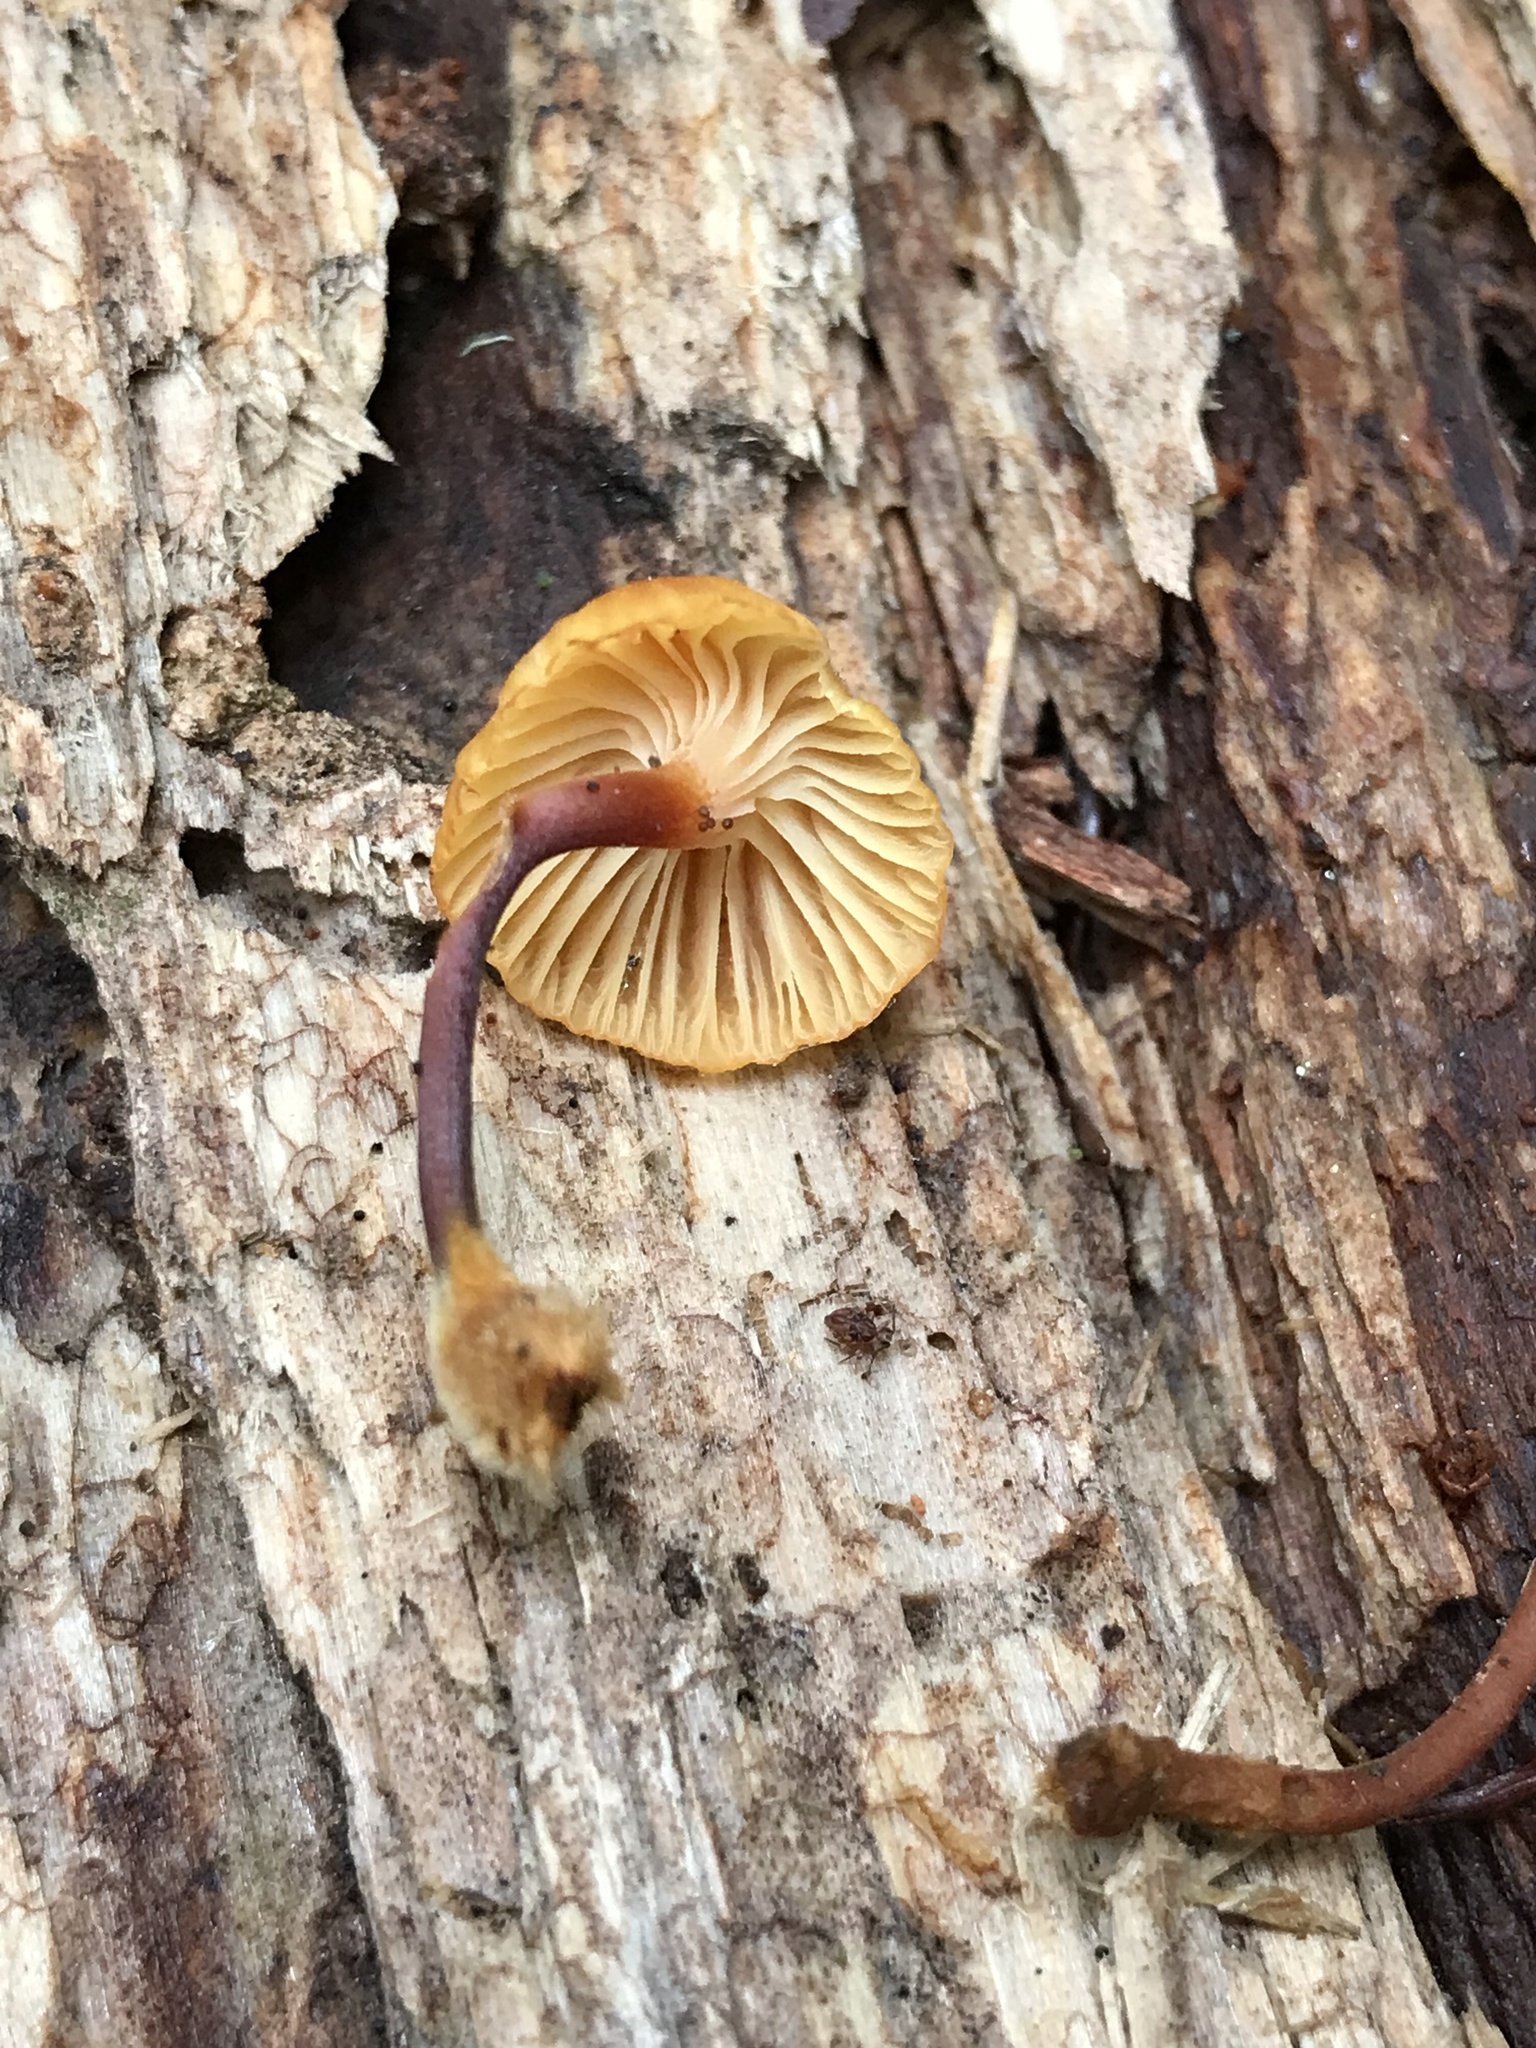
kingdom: Fungi
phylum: Basidiomycota
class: Agaricomycetes
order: Agaricales
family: Mycenaceae
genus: Xeromphalina
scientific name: Xeromphalina campanella
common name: Pinewood gingertail
